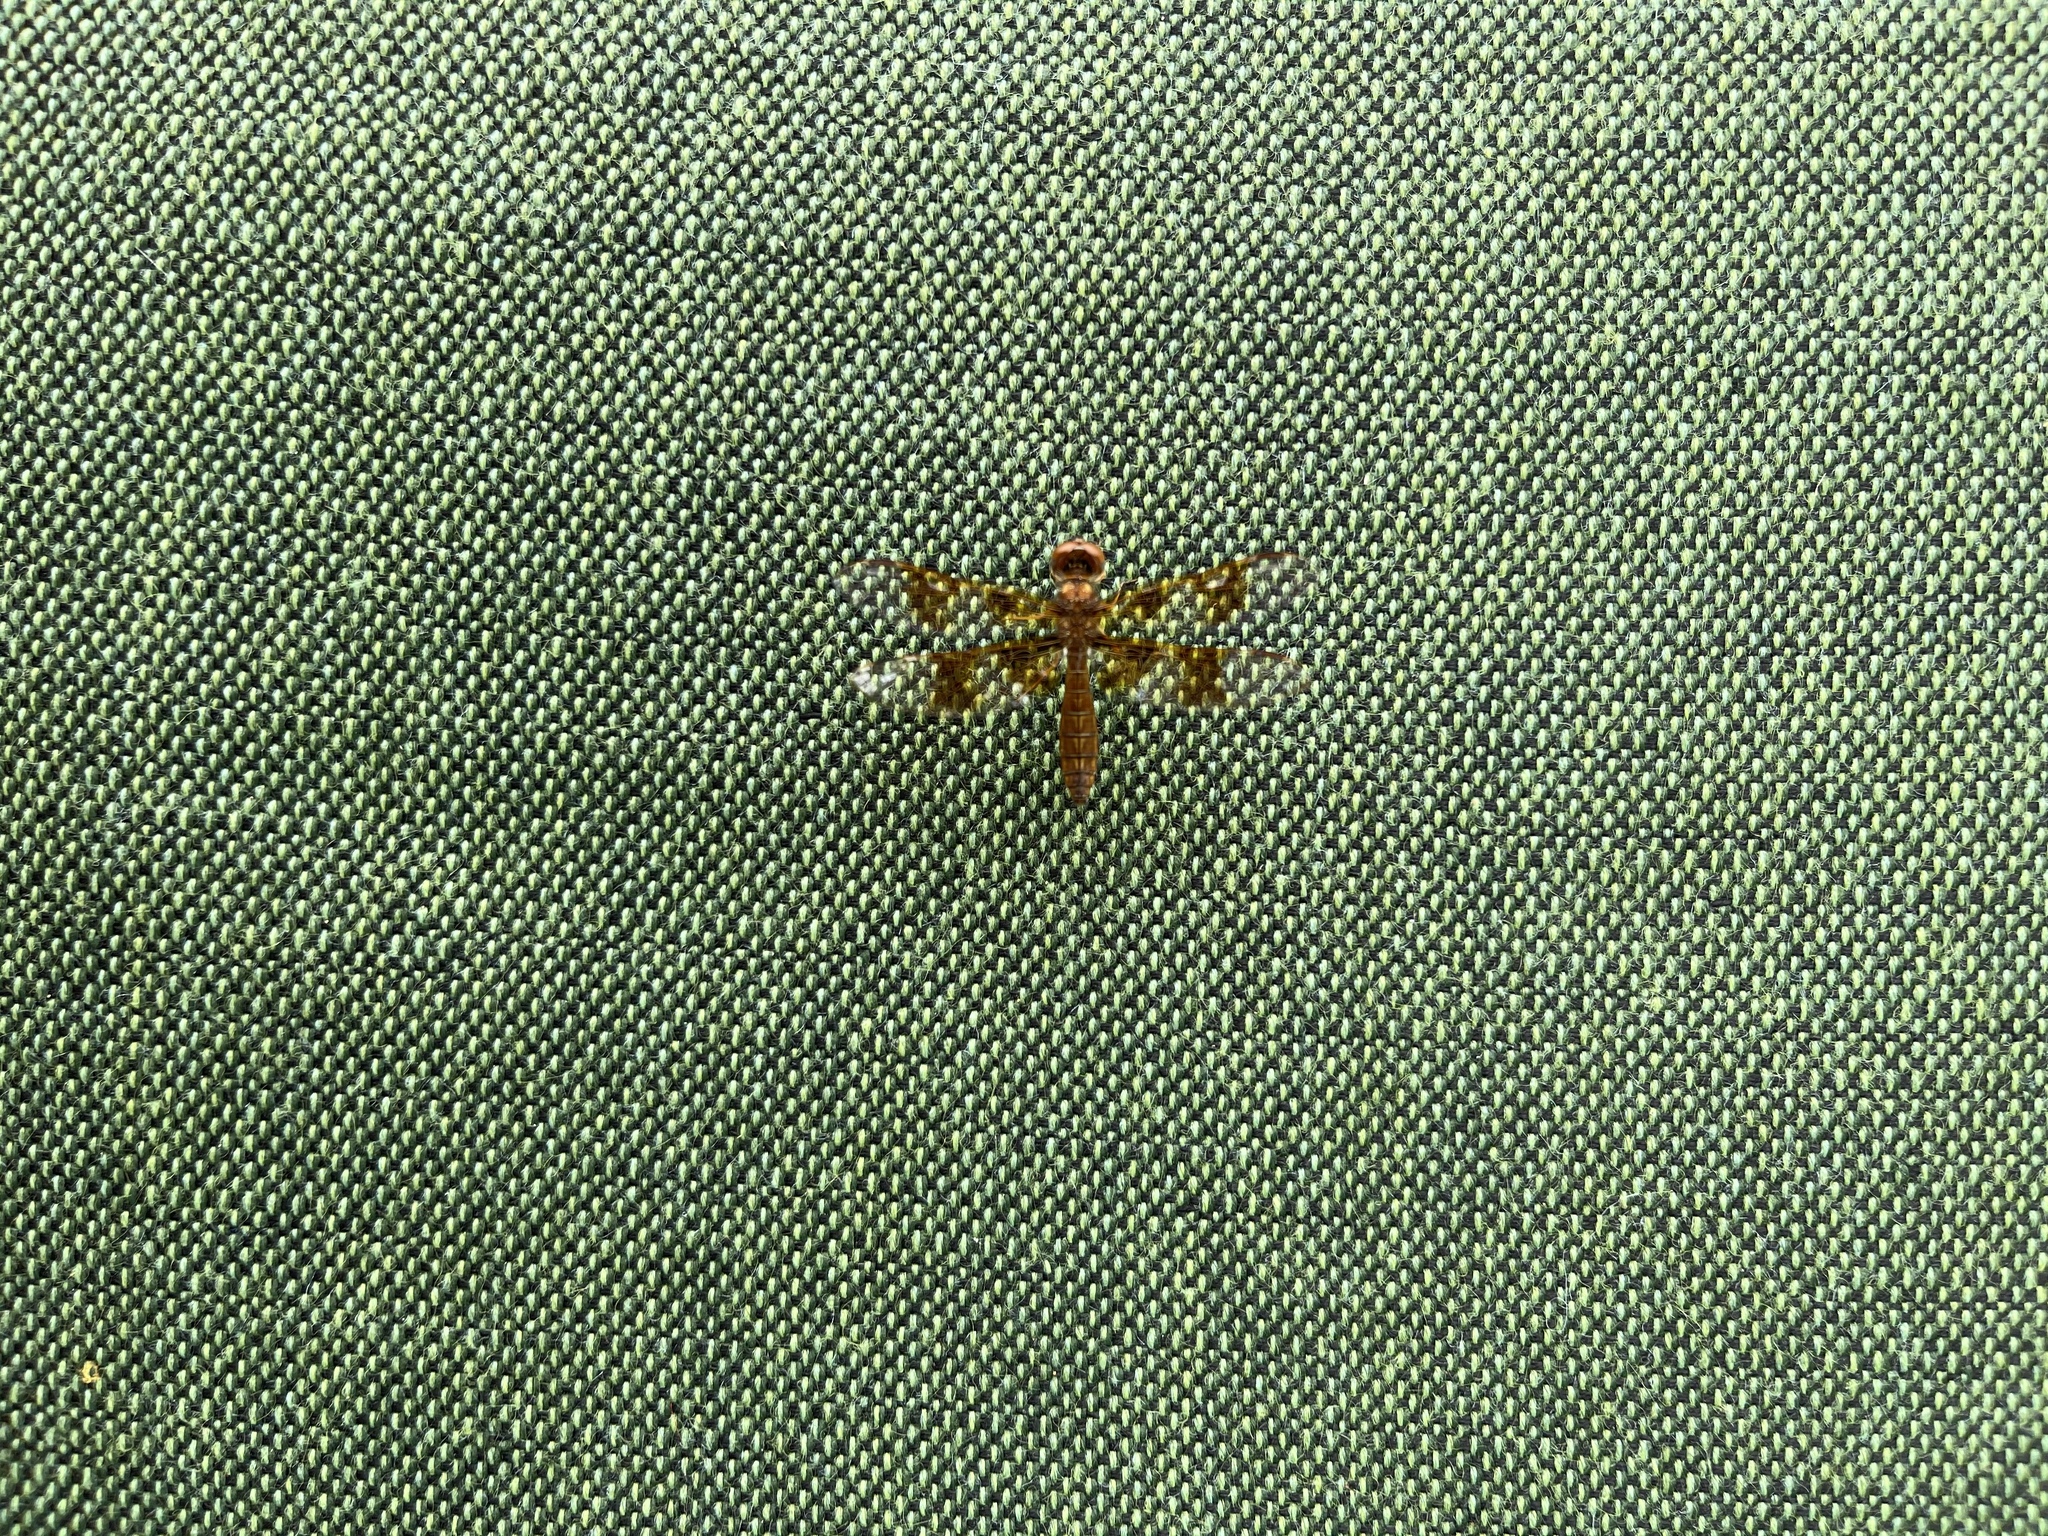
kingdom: Animalia
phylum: Arthropoda
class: Insecta
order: Odonata
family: Libellulidae
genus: Perithemis
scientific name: Perithemis tenera
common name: Eastern amberwing
